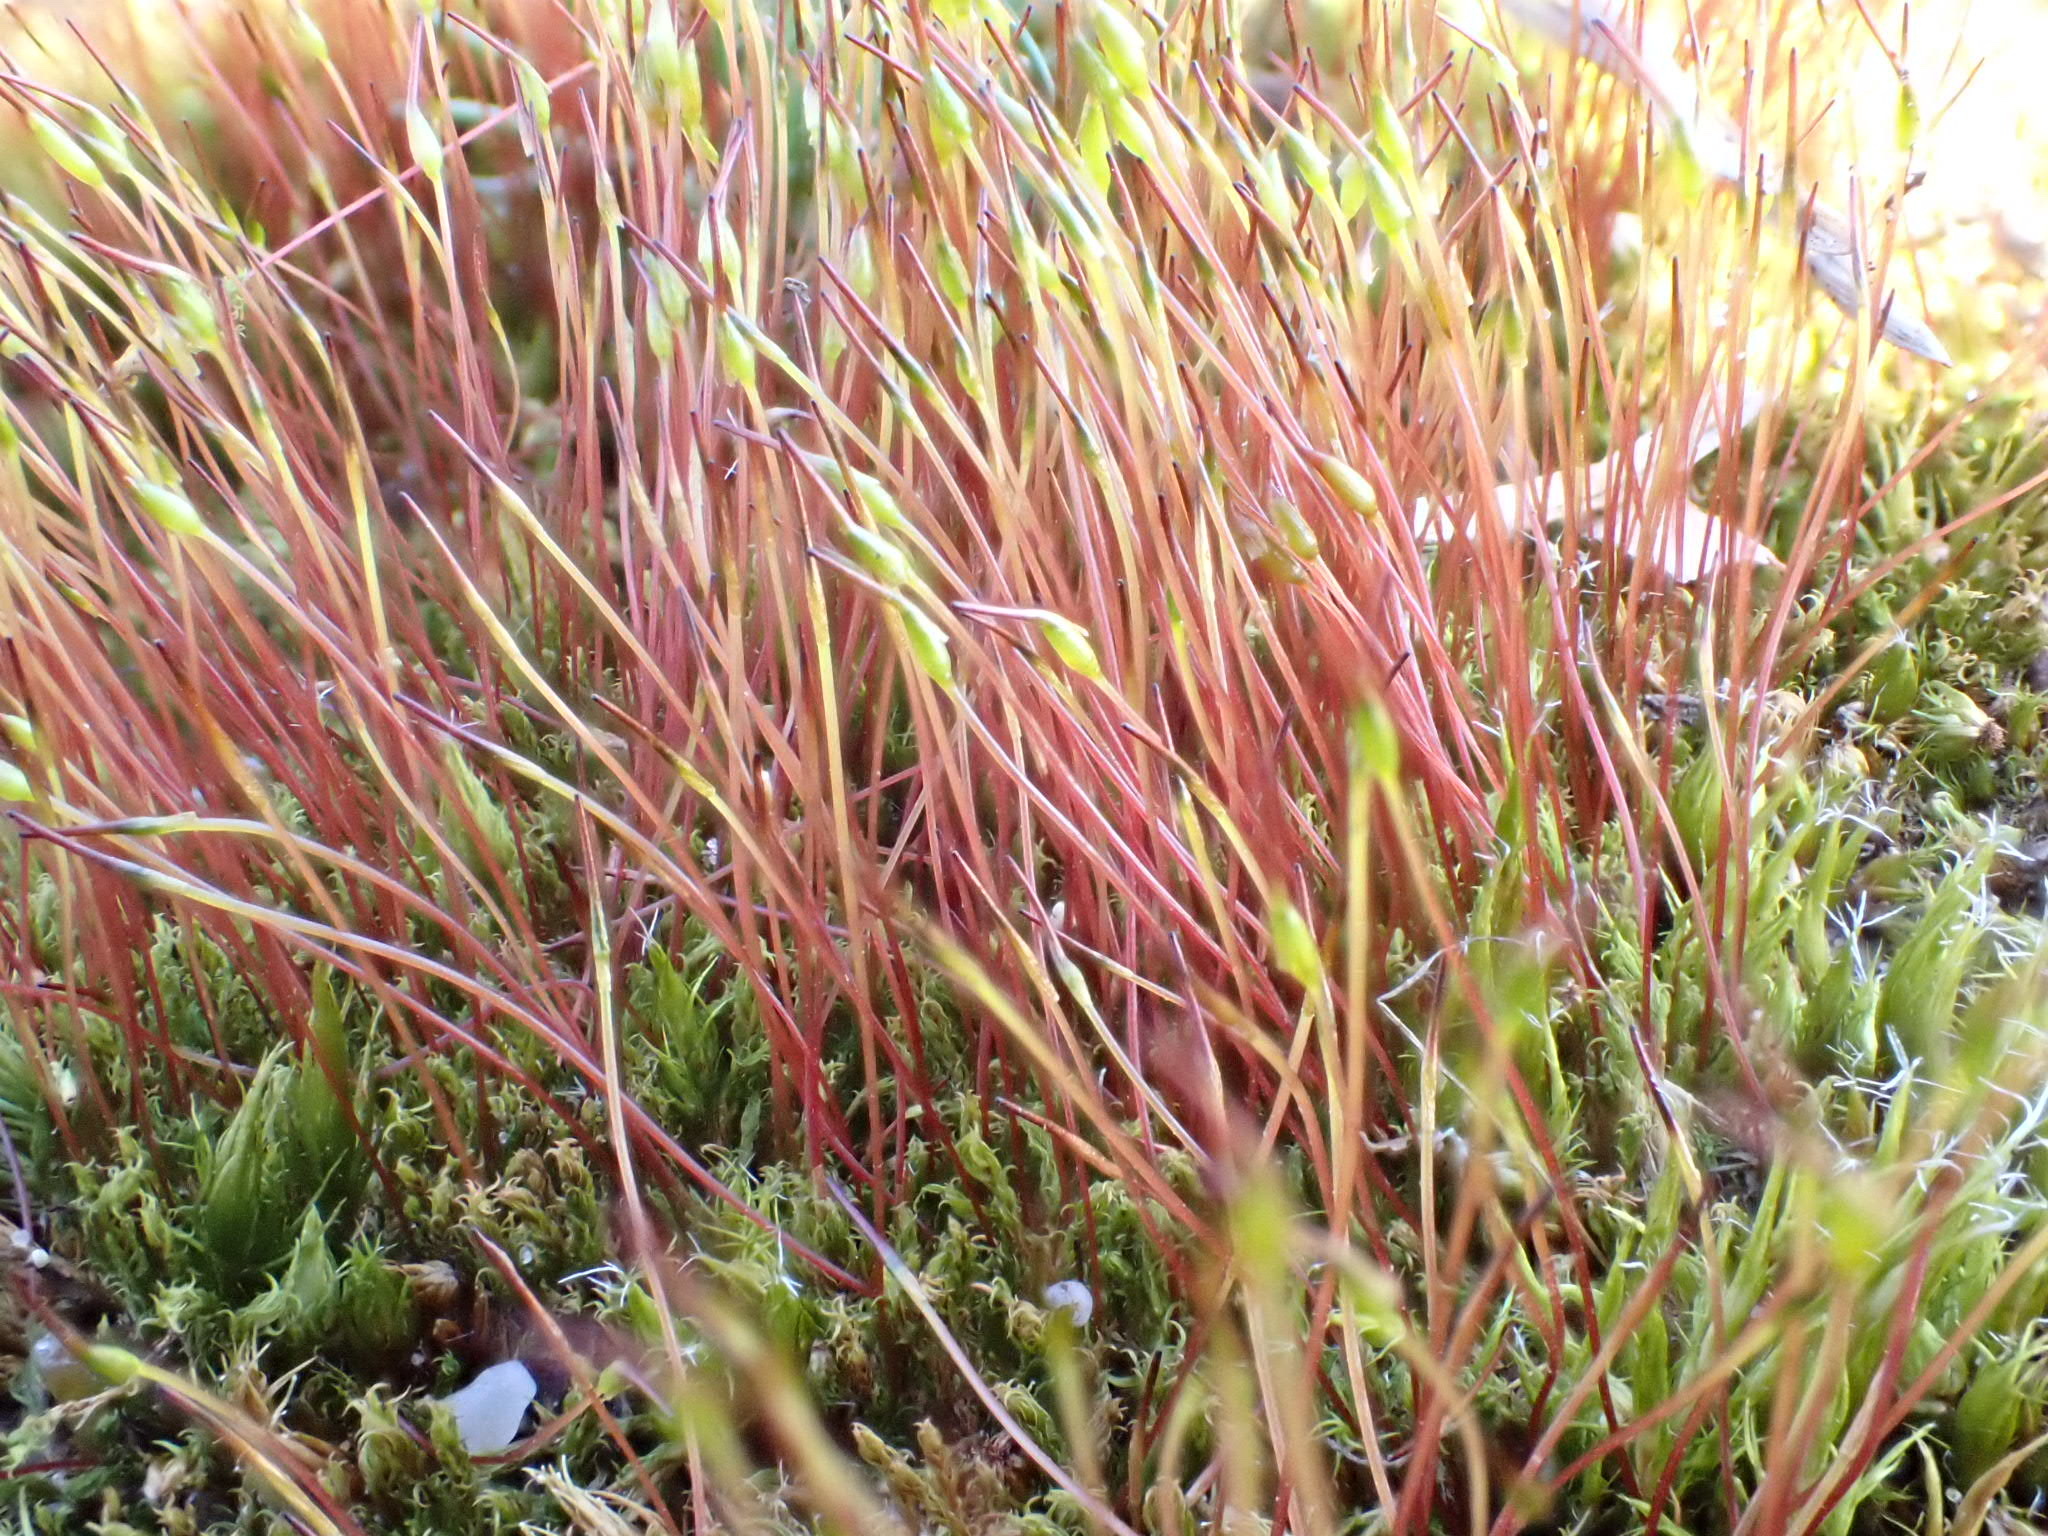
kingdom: Plantae
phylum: Bryophyta
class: Bryopsida
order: Dicranales
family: Ditrichaceae
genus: Ceratodon
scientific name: Ceratodon purpureus
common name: Redshank
